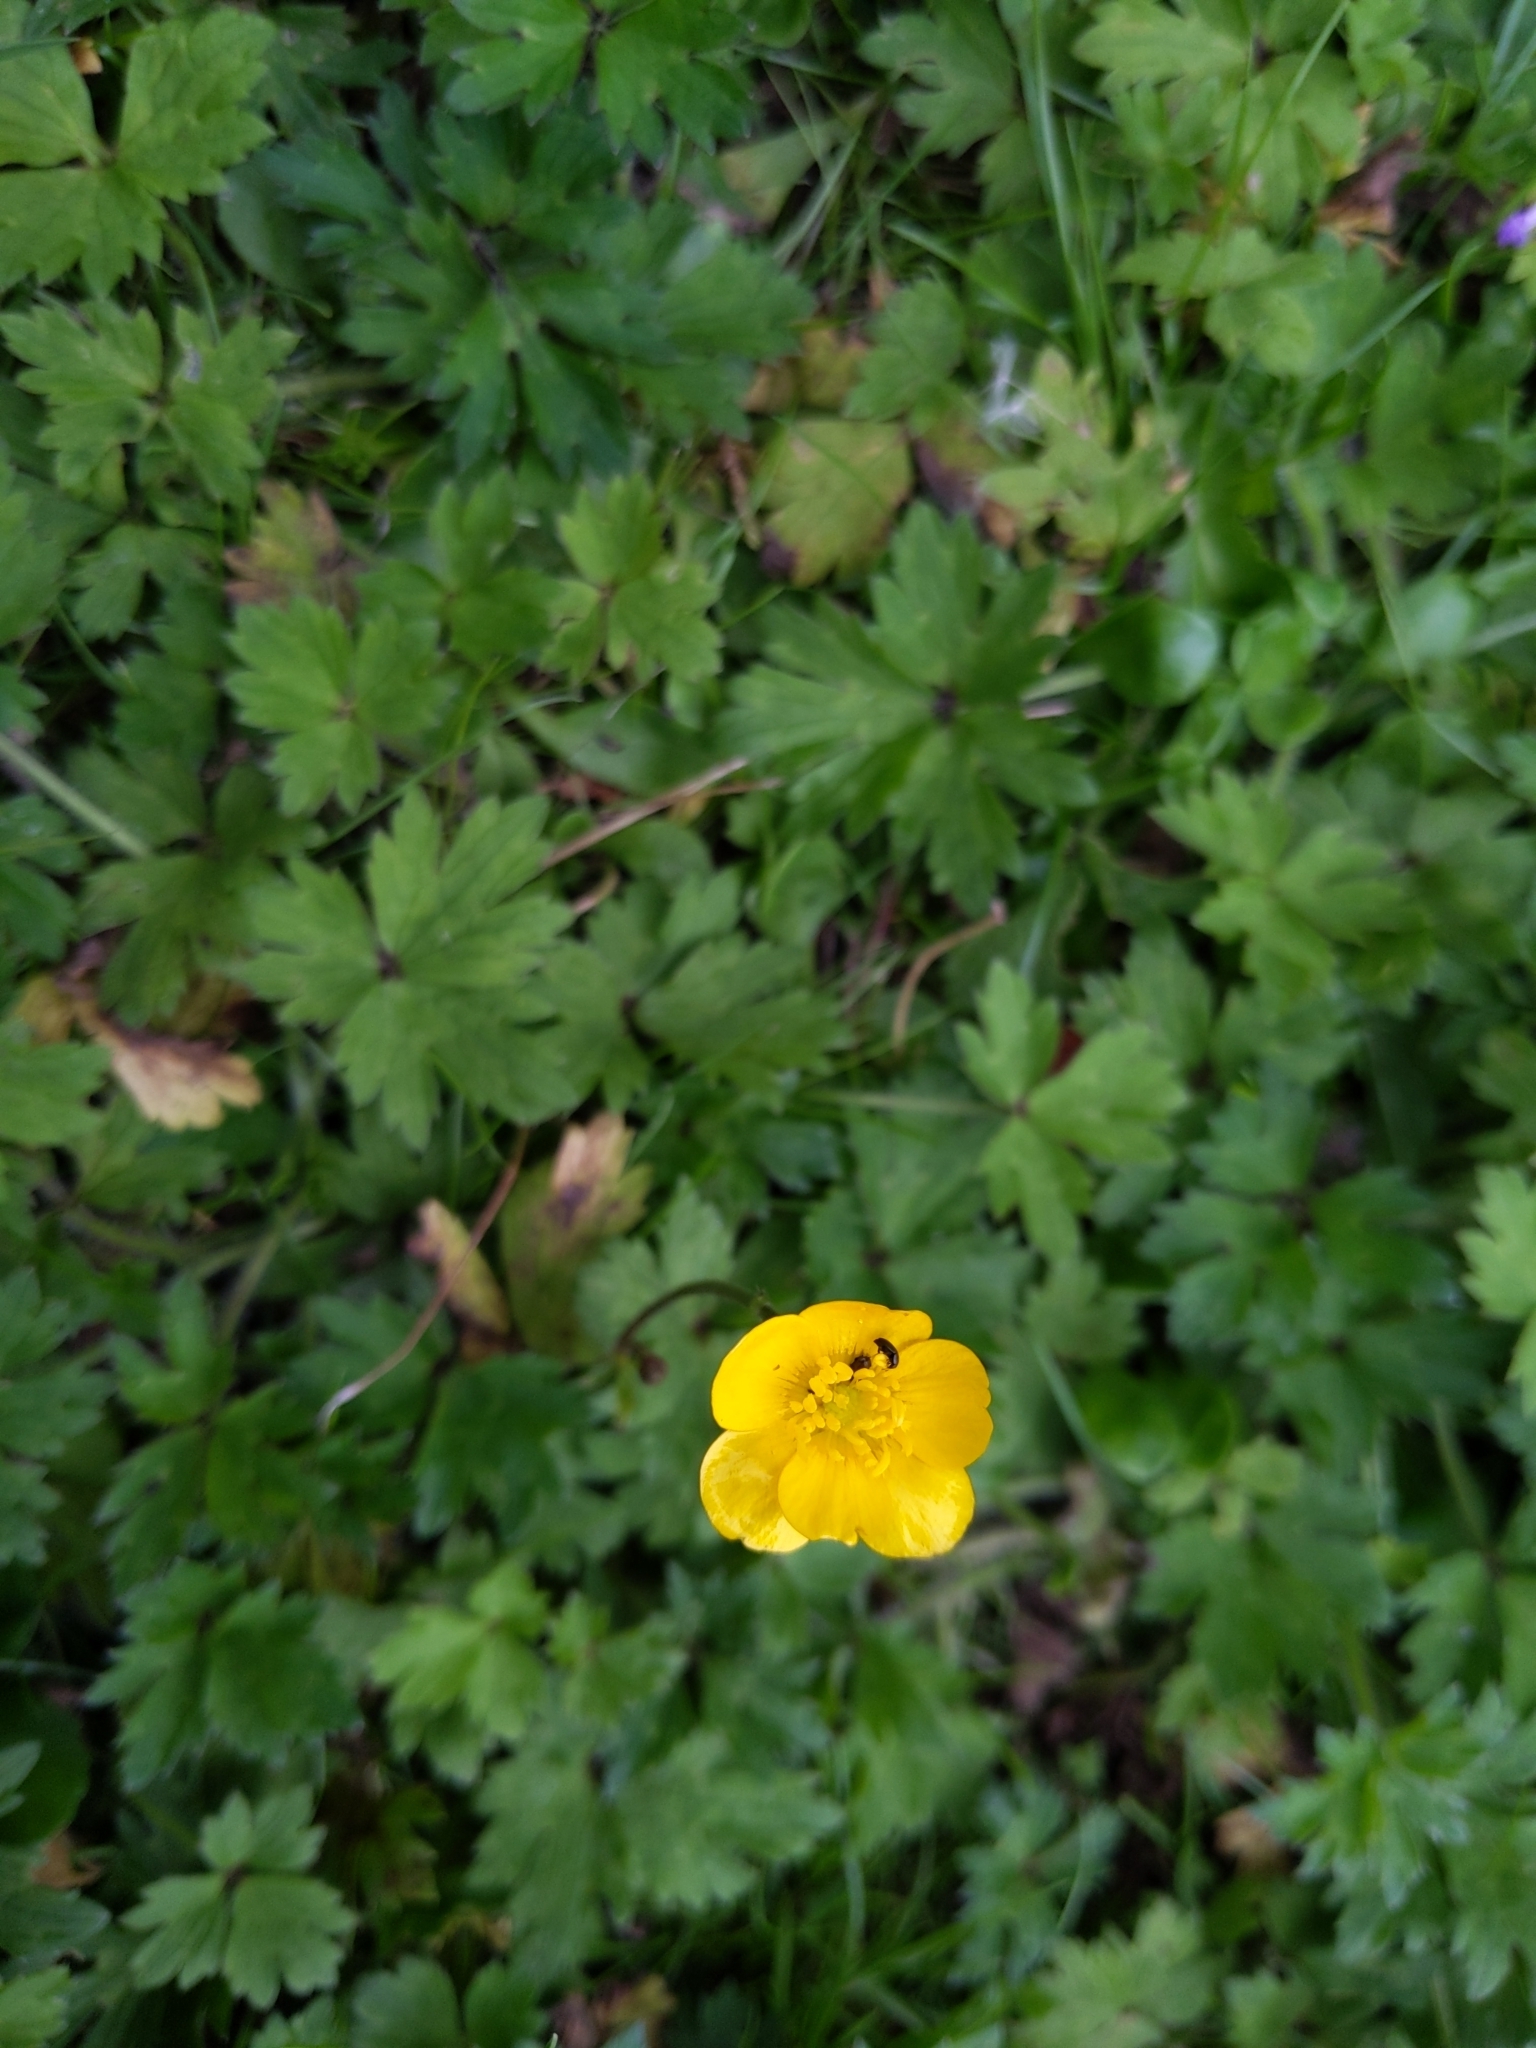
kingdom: Plantae
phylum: Tracheophyta
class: Magnoliopsida
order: Ranunculales
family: Ranunculaceae
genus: Ranunculus
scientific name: Ranunculus repens
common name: Creeping buttercup
